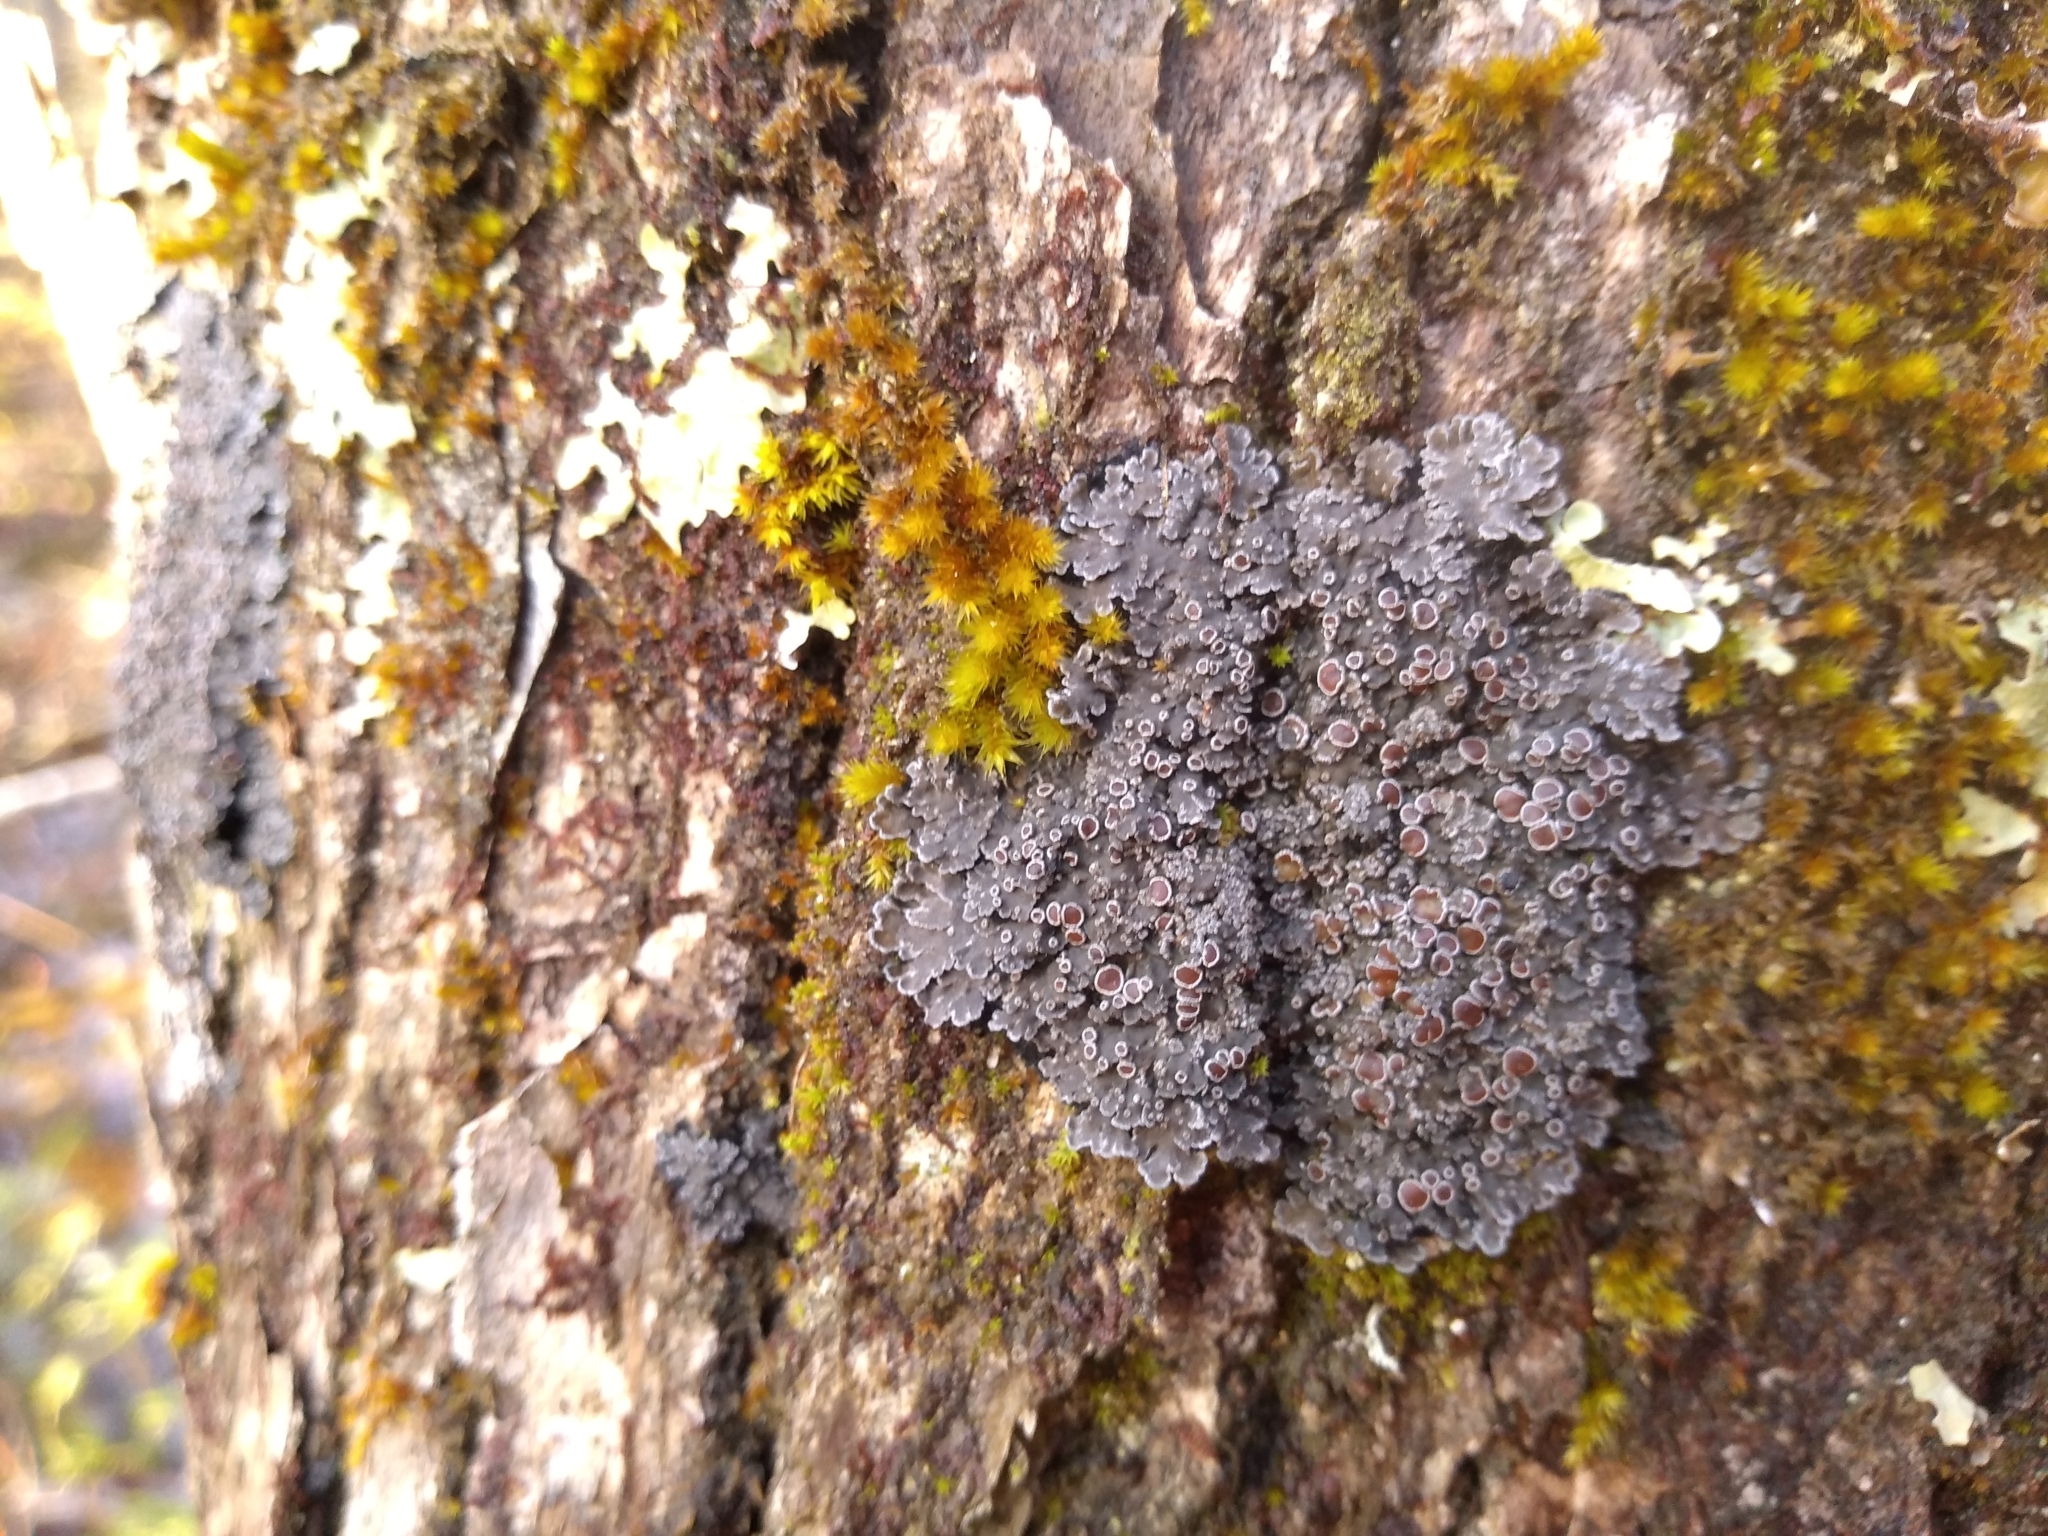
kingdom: Fungi
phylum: Ascomycota
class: Lecanoromycetes
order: Peltigerales
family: Pannariaceae
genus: Pannaria
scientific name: Pannaria lurida
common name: Wrinkled shingle lichen
